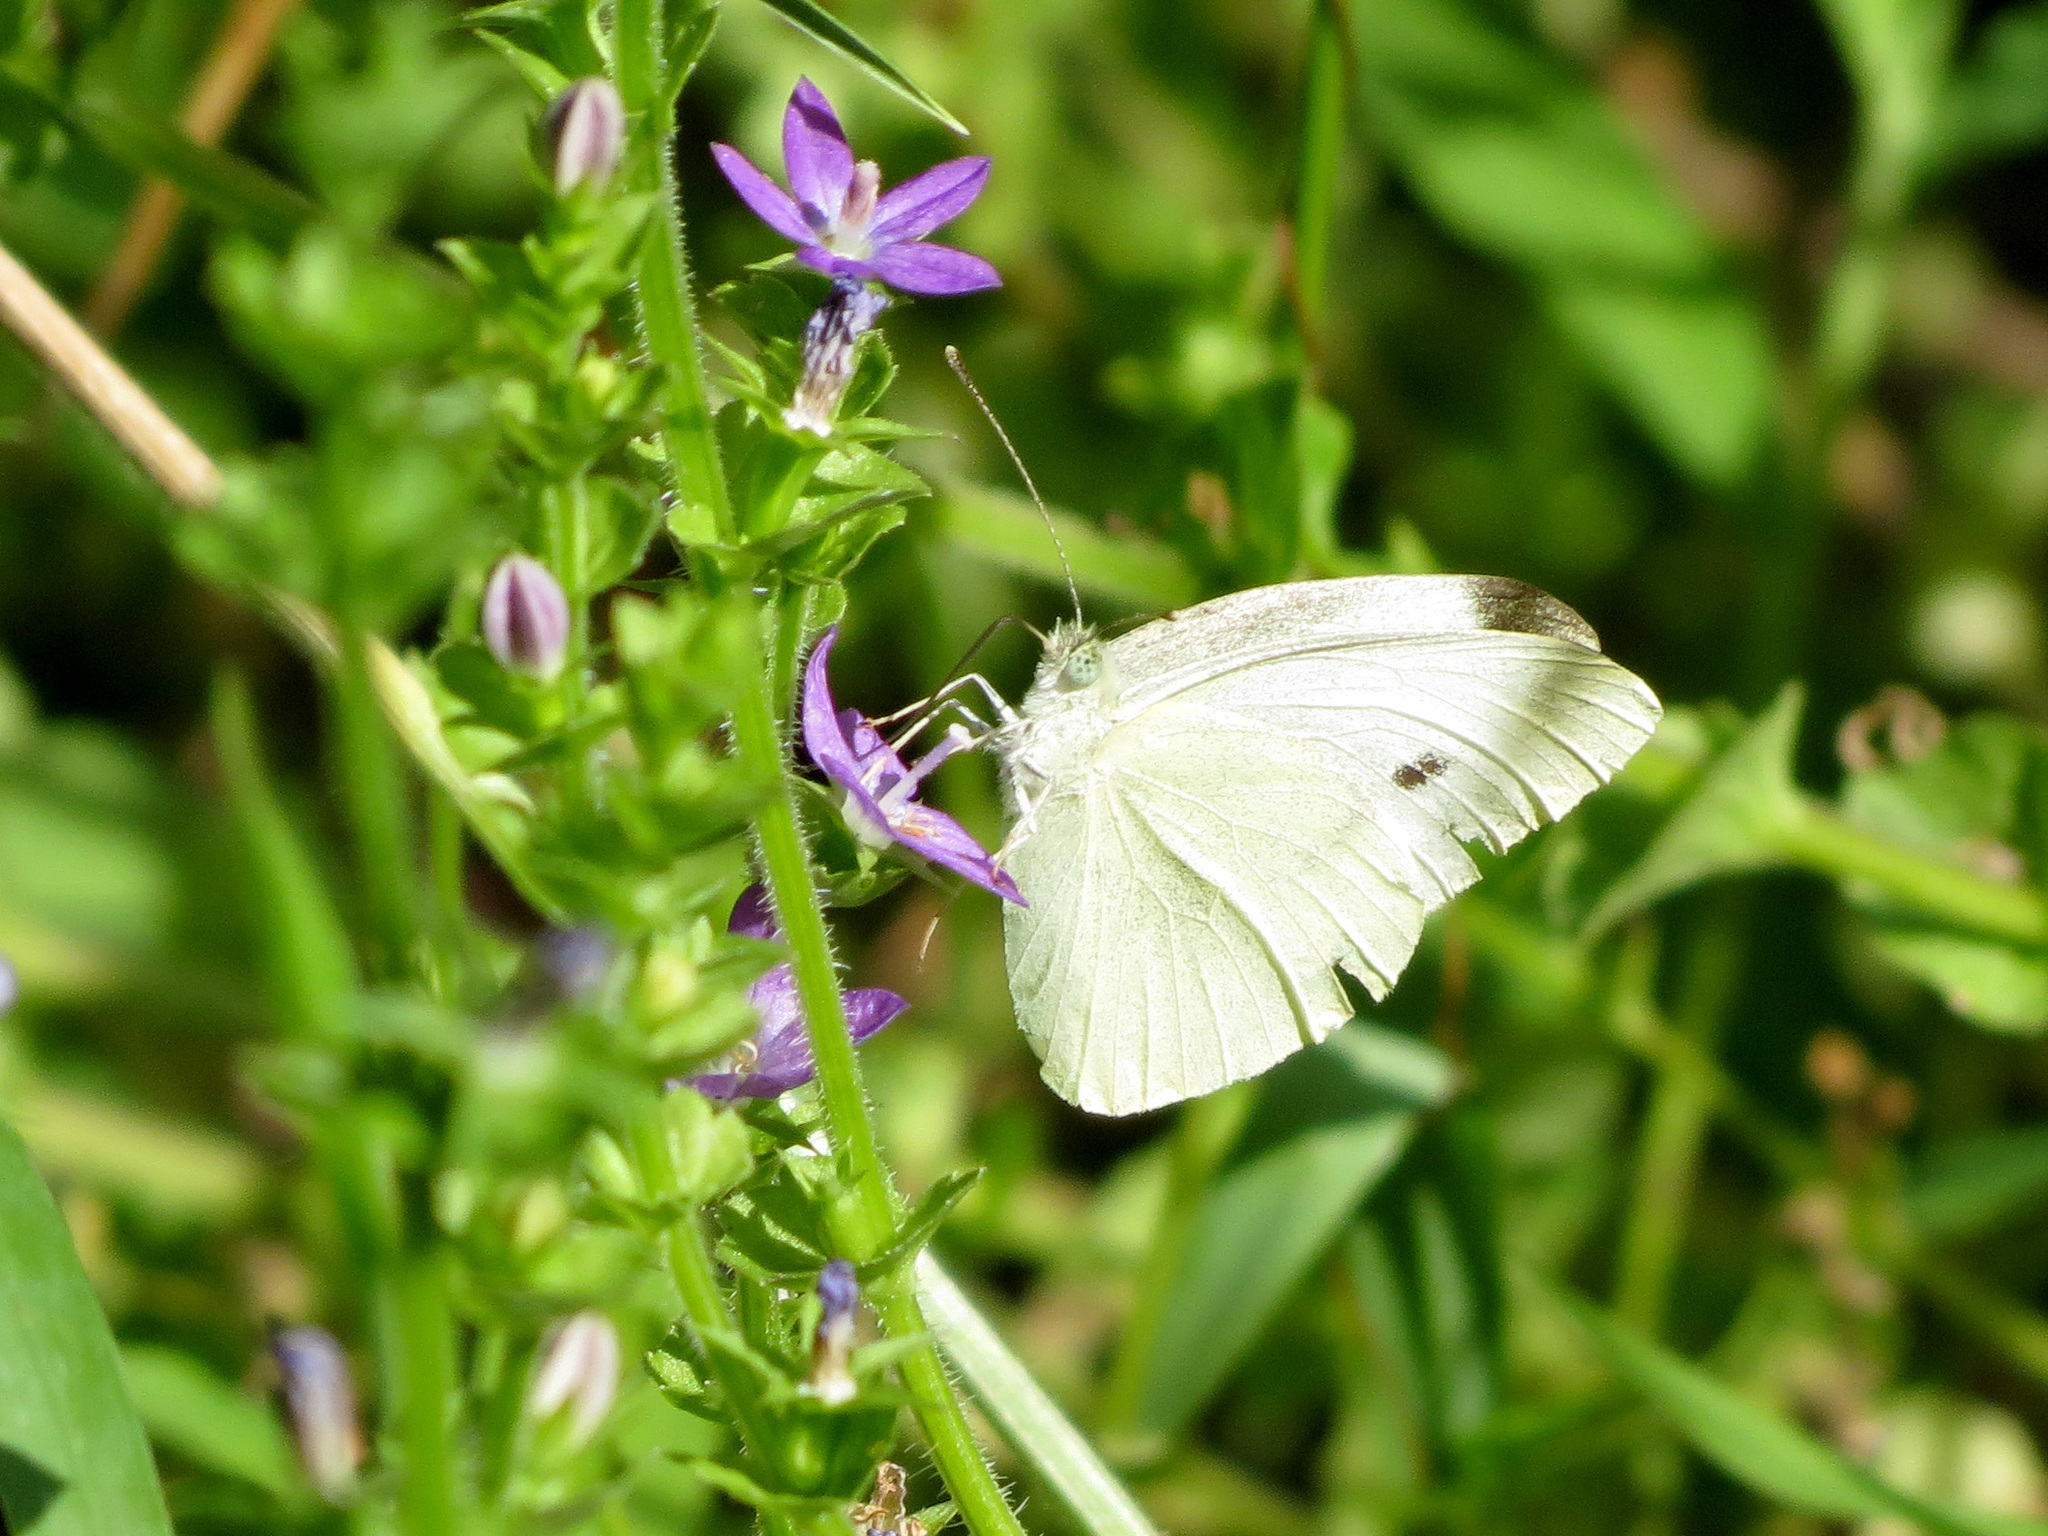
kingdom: Animalia
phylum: Arthropoda
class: Insecta
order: Lepidoptera
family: Pieridae
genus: Pieris
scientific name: Pieris rapae
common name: Small white
